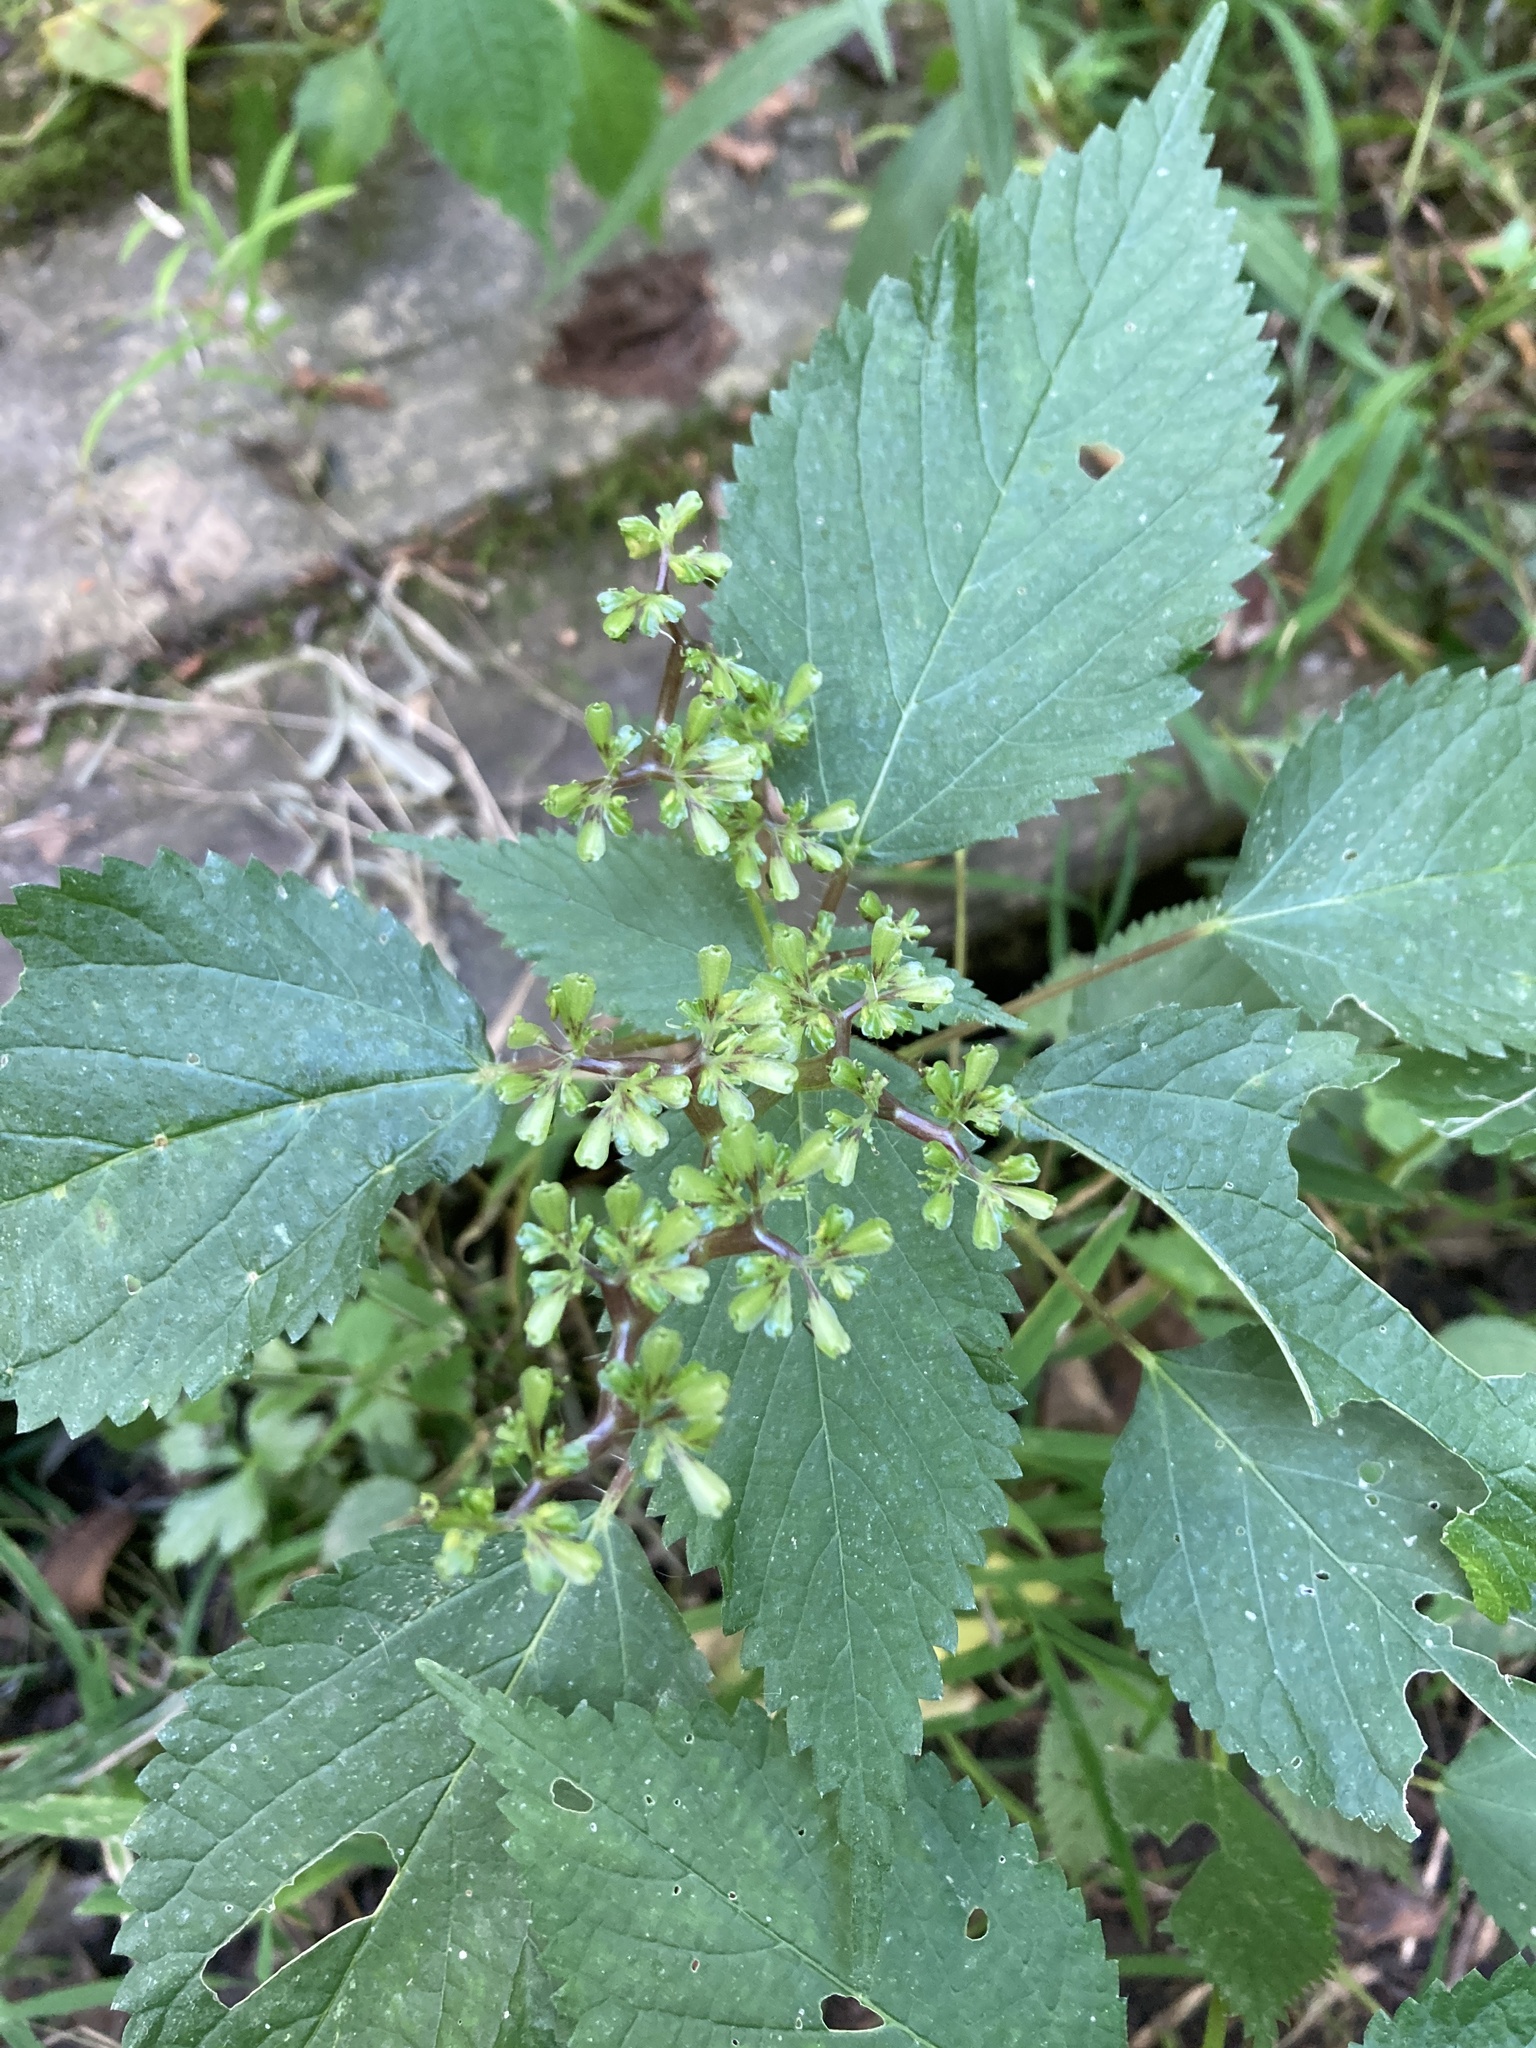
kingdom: Plantae
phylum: Tracheophyta
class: Magnoliopsida
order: Rosales
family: Urticaceae
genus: Laportea
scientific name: Laportea canadensis
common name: Canada nettle
